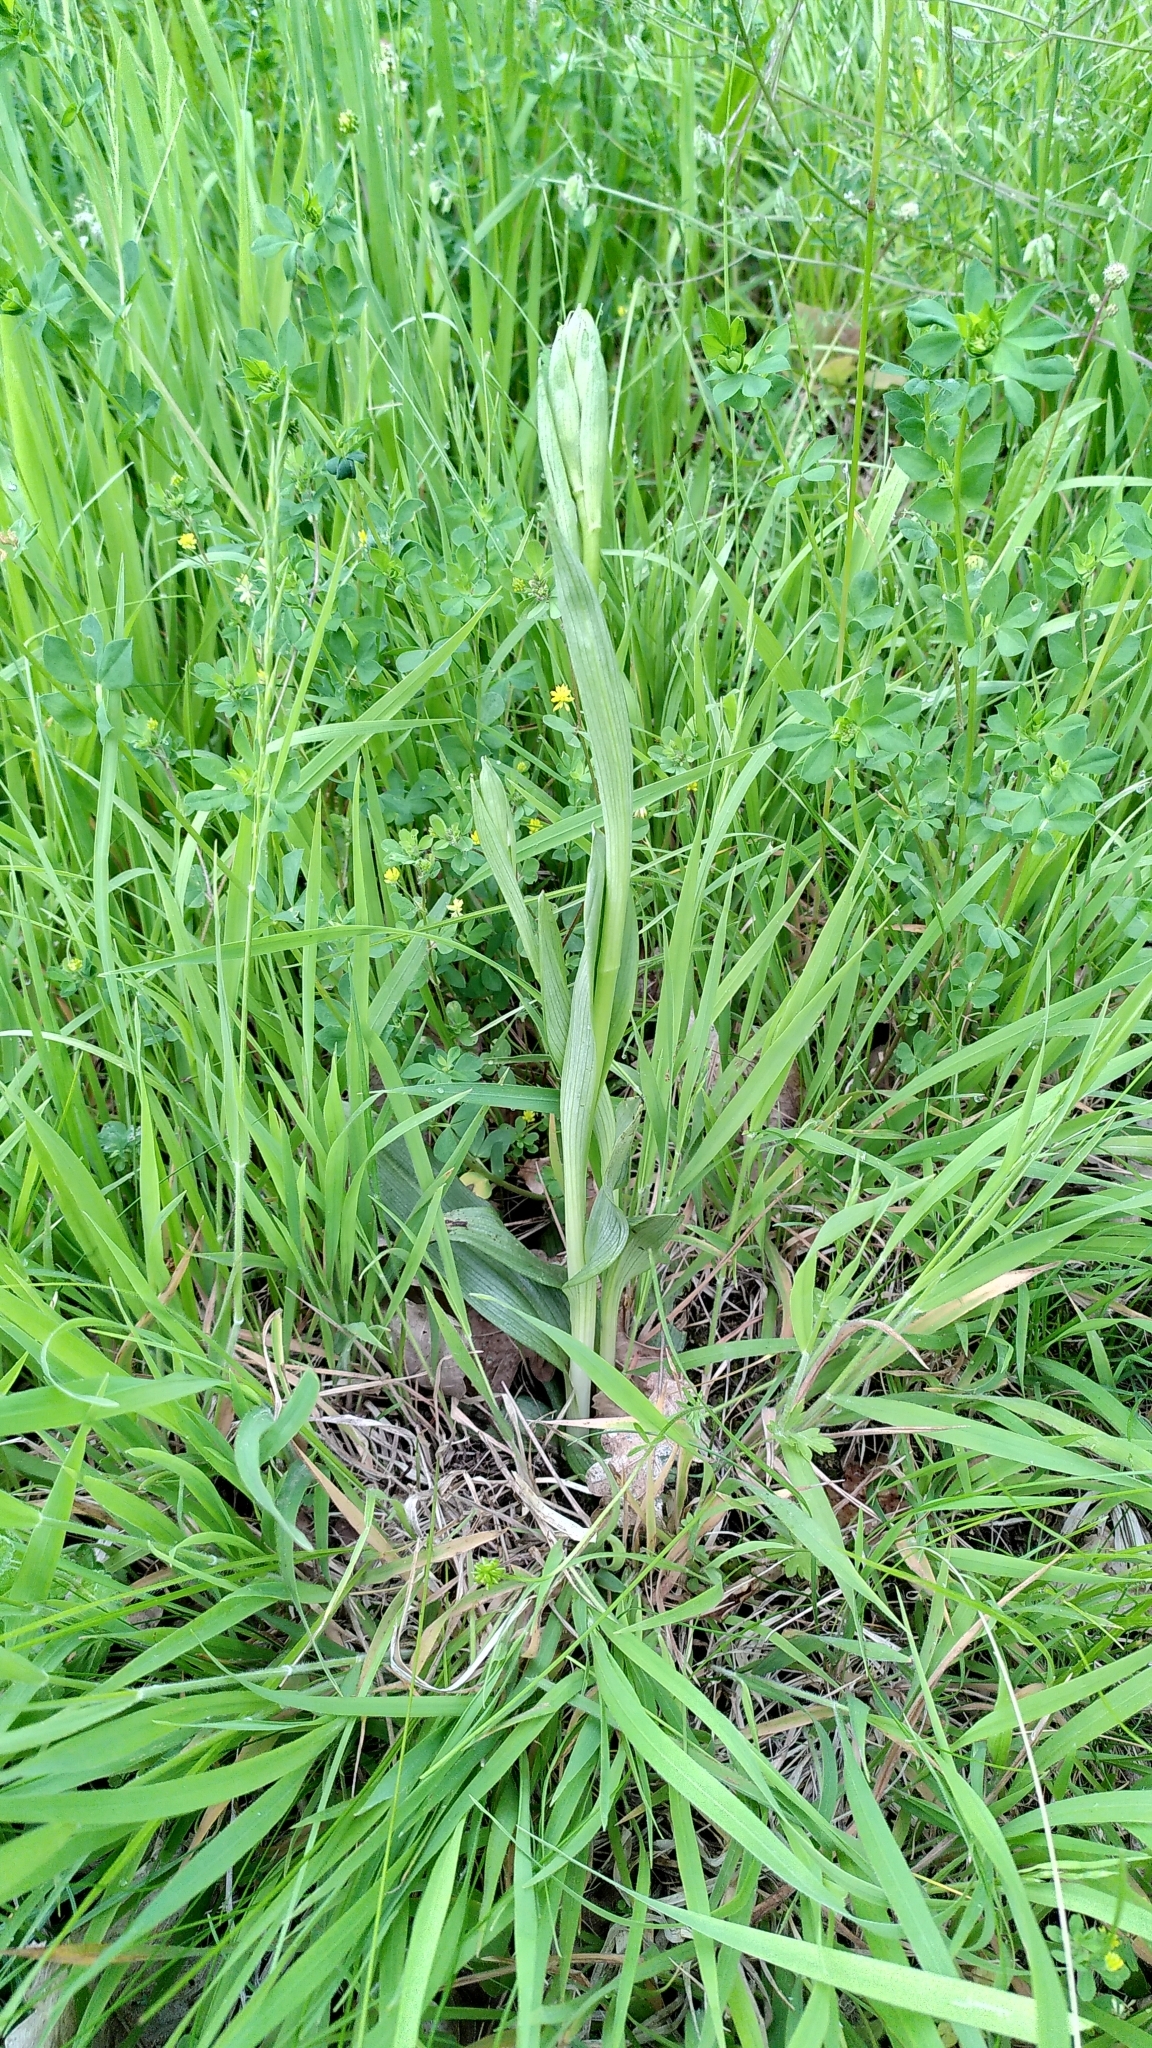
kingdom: Plantae
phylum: Tracheophyta
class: Liliopsida
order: Asparagales
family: Orchidaceae
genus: Ophrys
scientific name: Ophrys apifera
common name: Bee orchid
